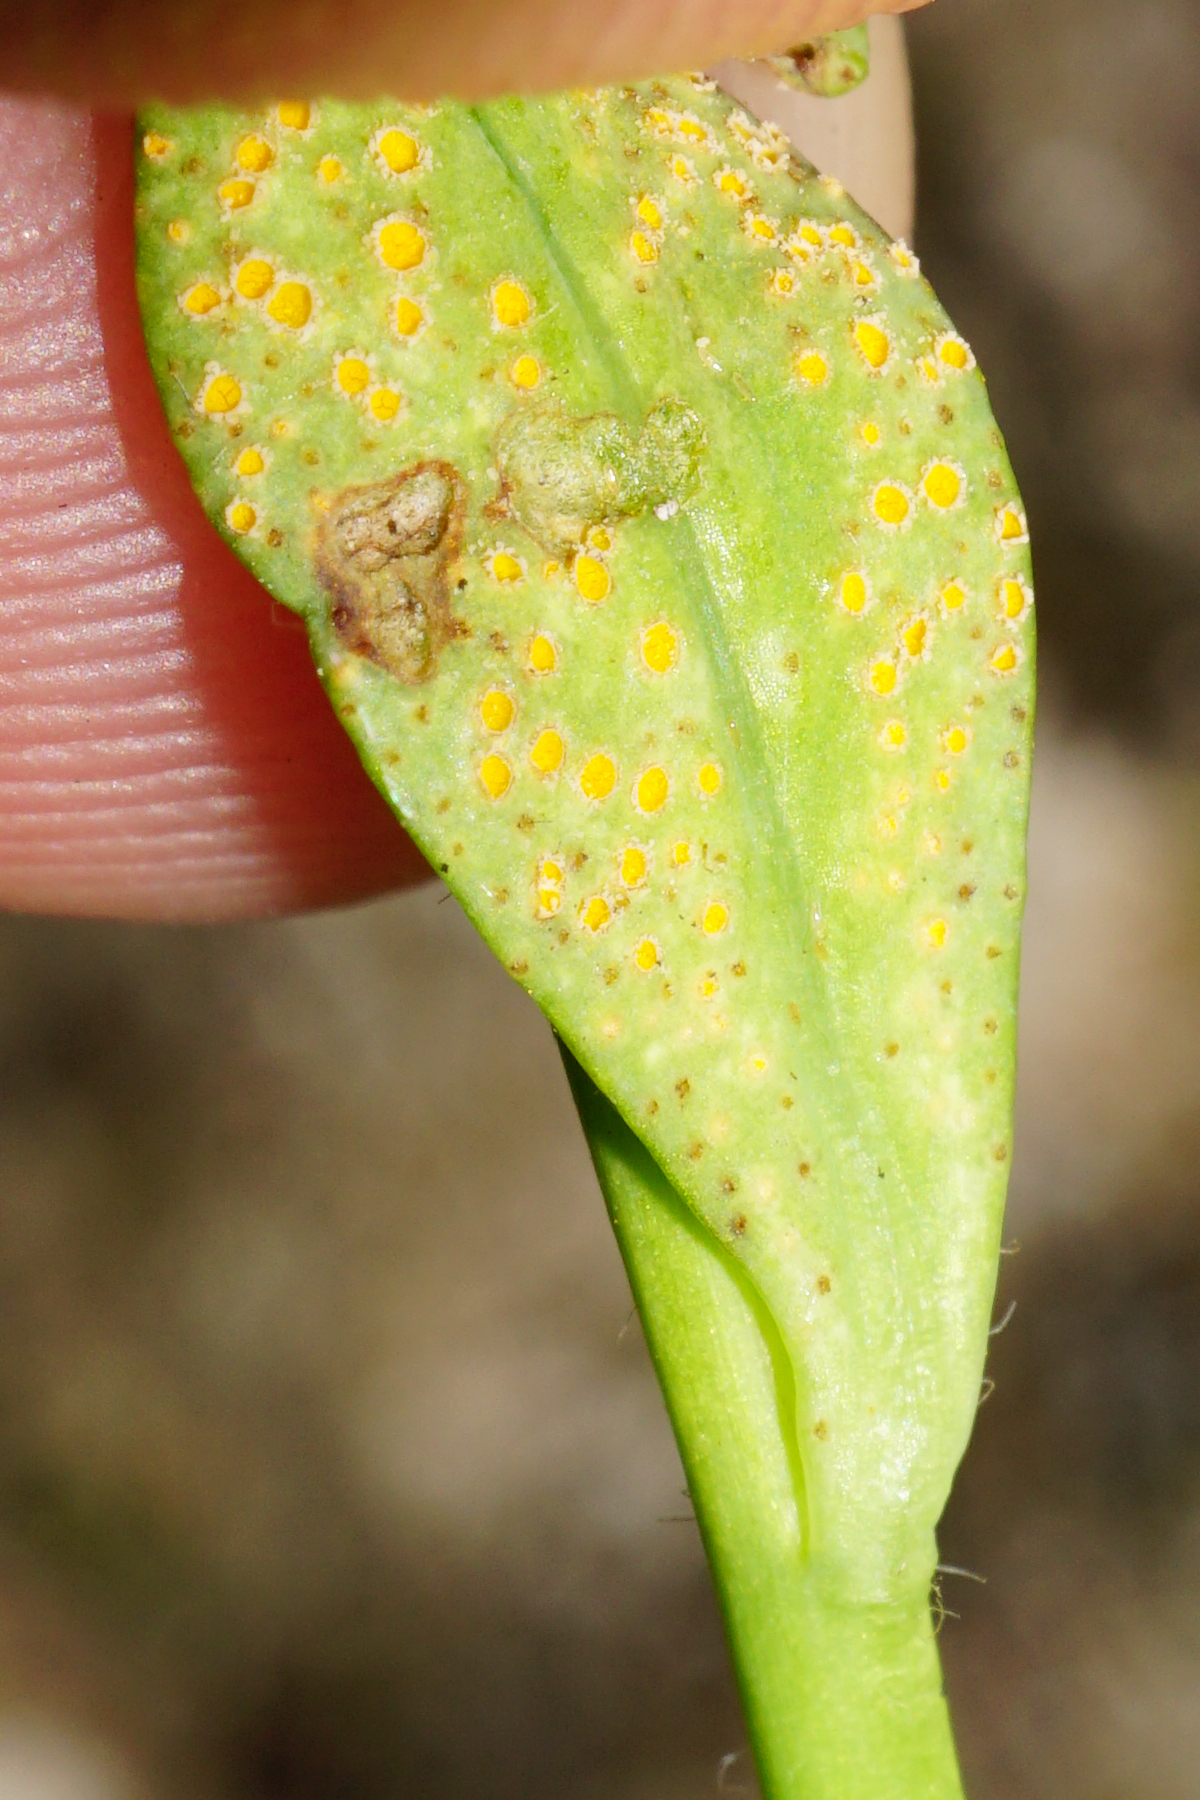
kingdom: Fungi
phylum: Basidiomycota
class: Pucciniomycetes
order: Pucciniales
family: Pucciniaceae
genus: Endophyllum
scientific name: Endophyllum euphorbiae-sylvaticae
